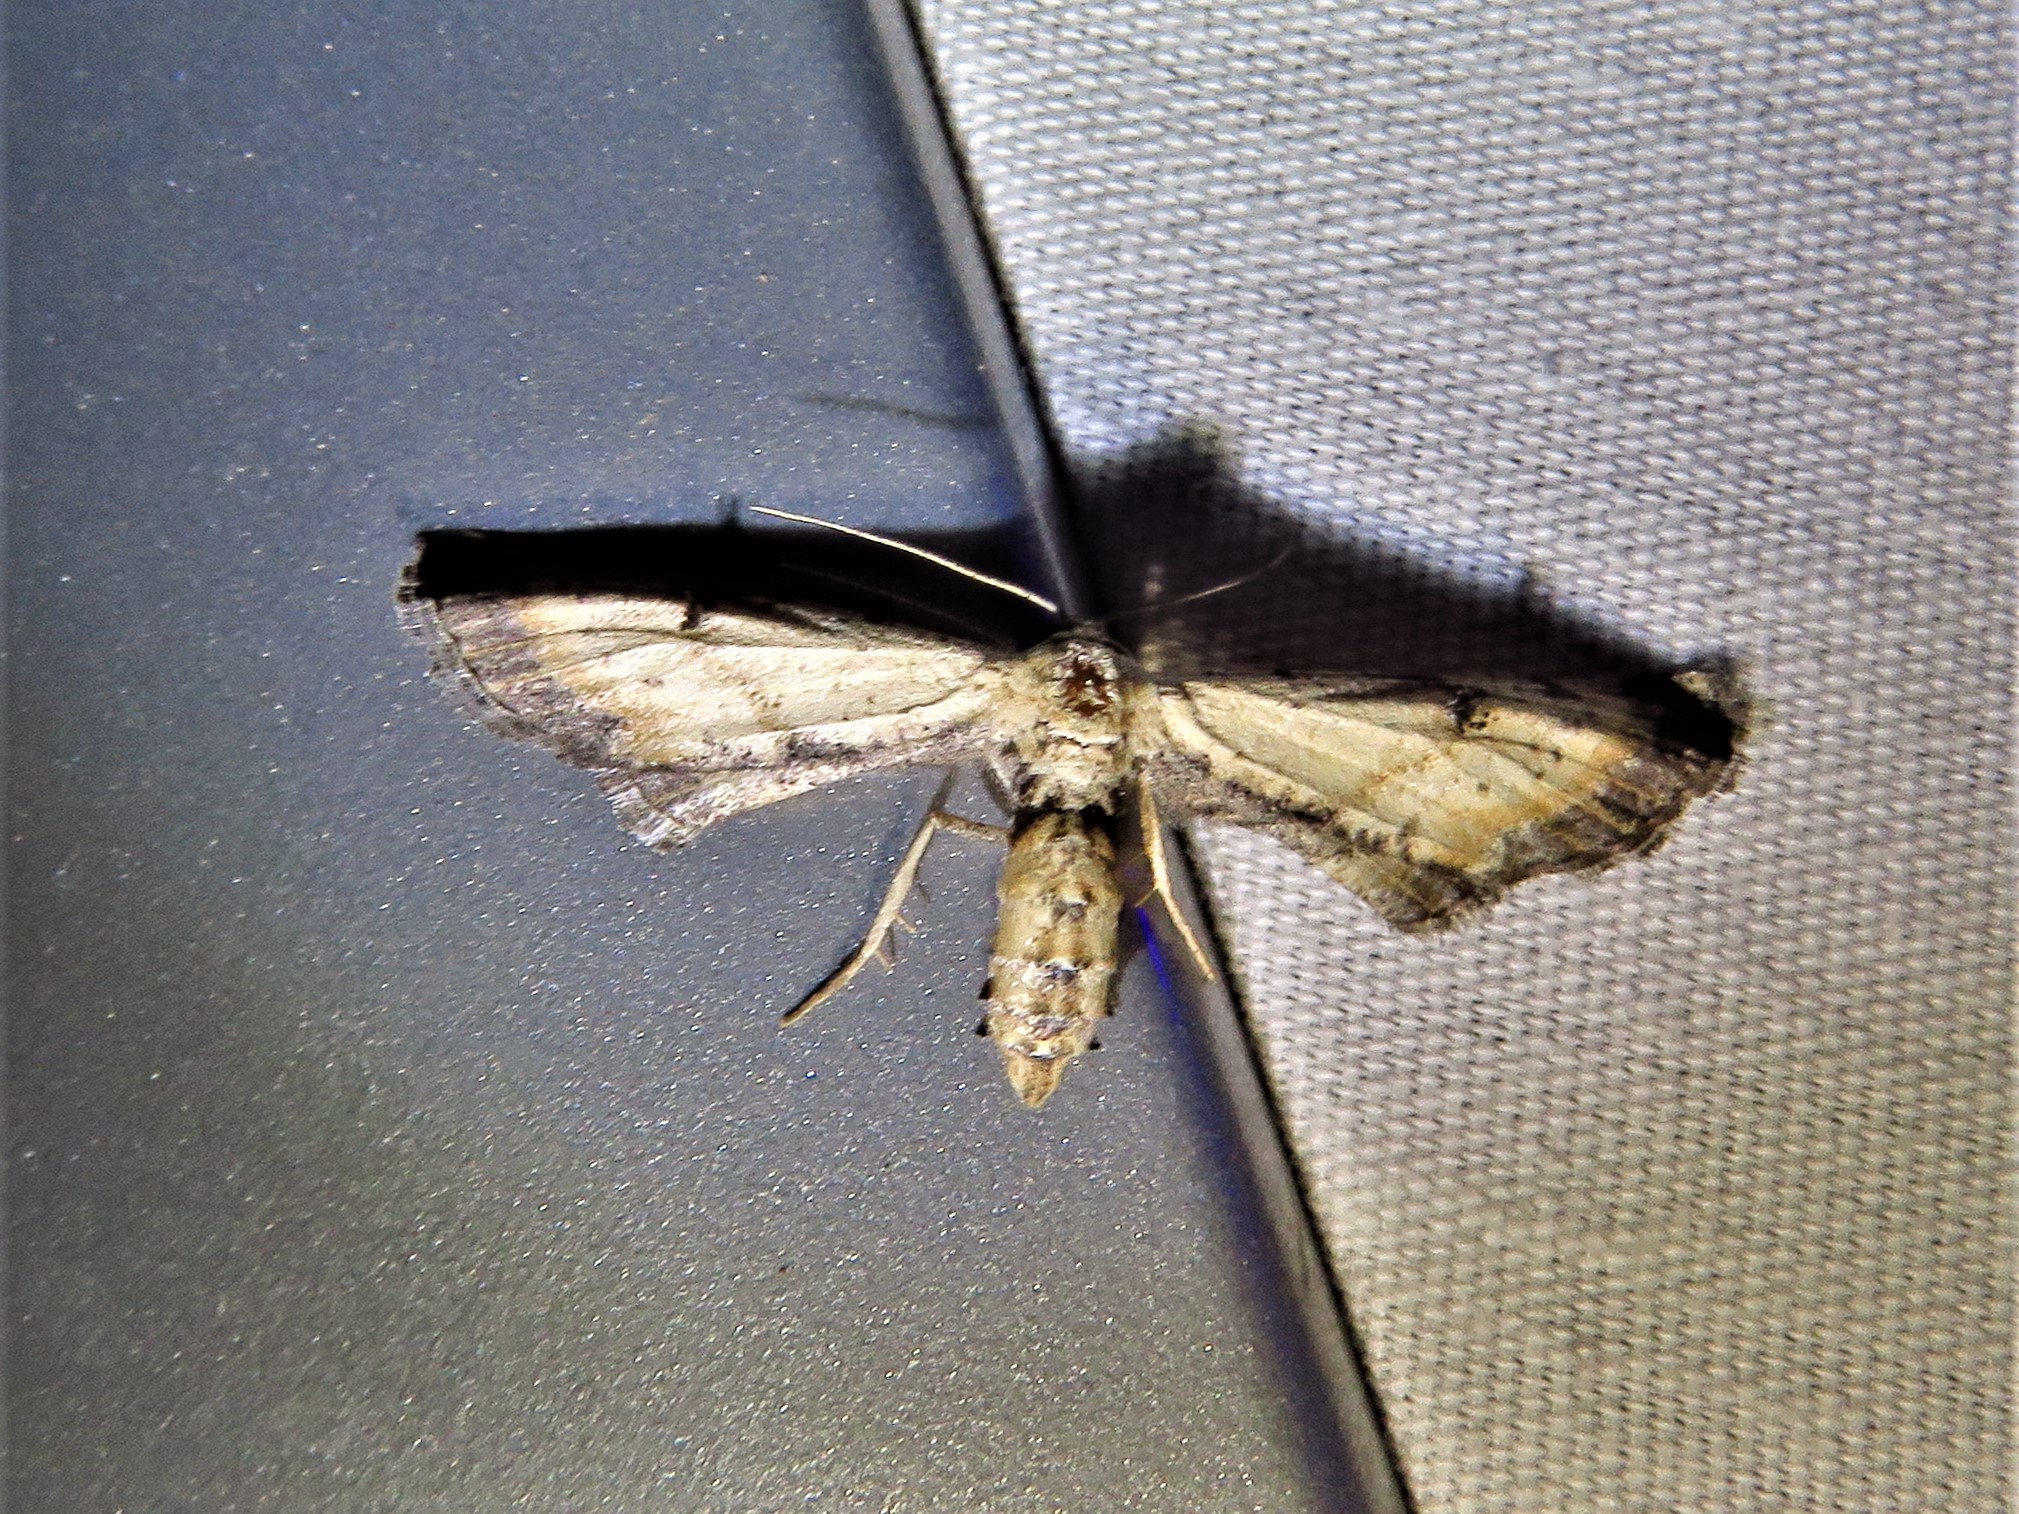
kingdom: Animalia
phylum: Arthropoda
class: Insecta
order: Lepidoptera
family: Geometridae
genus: Tornos
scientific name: Tornos scolopacinaria
